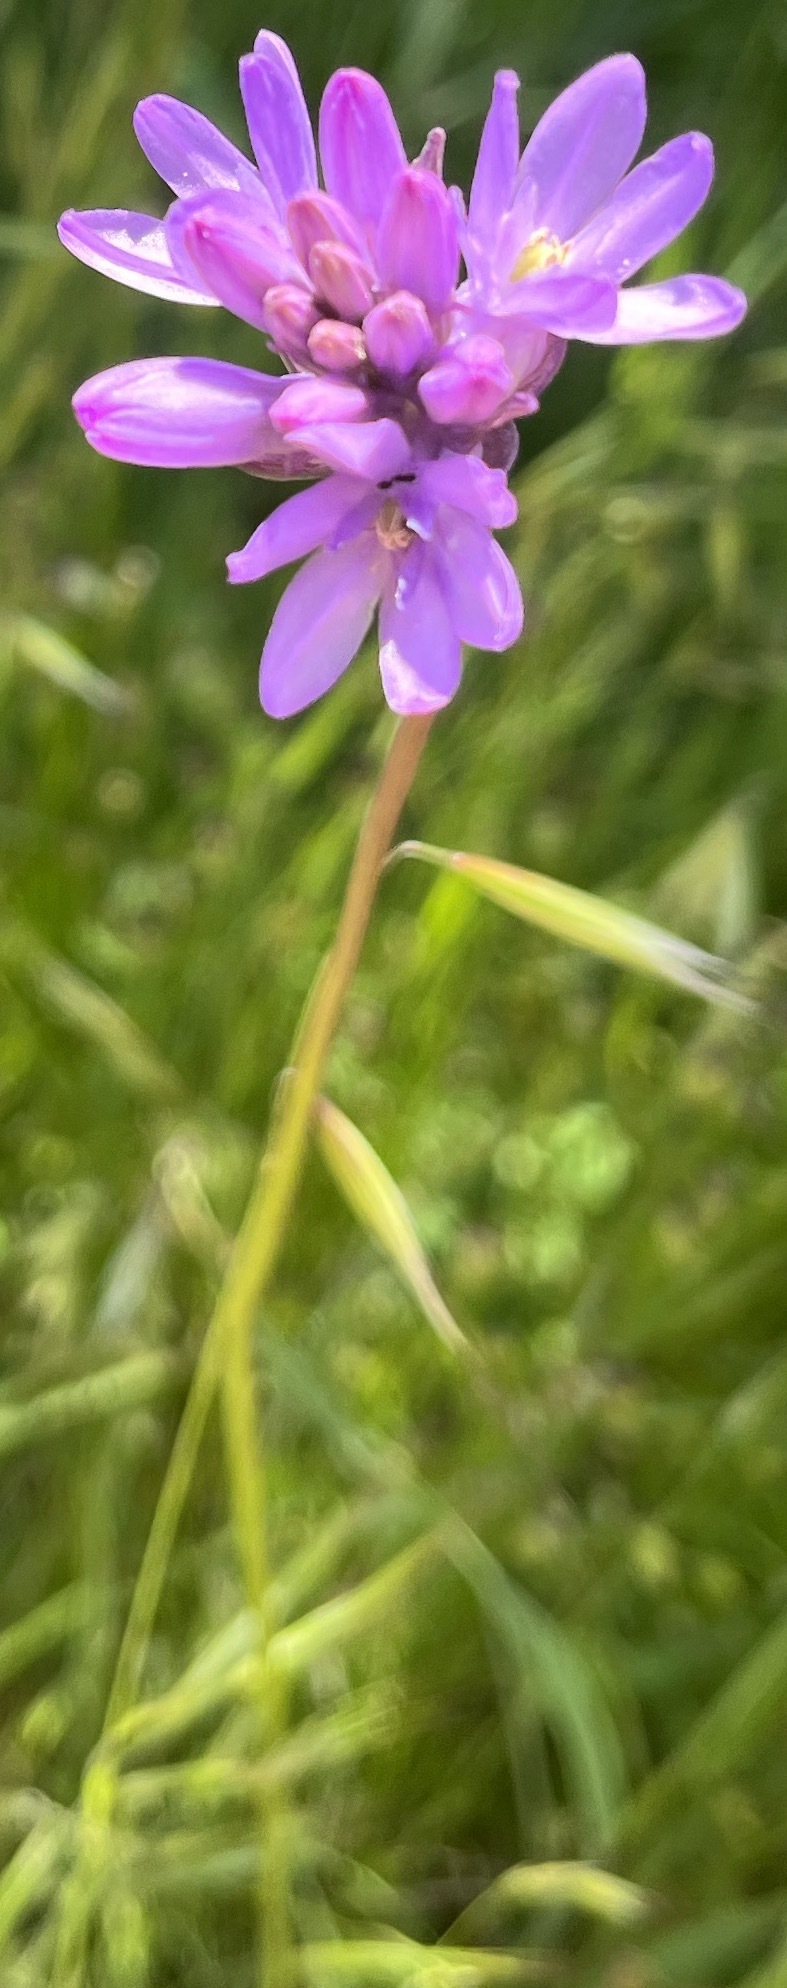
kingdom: Plantae
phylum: Tracheophyta
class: Liliopsida
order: Asparagales
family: Asparagaceae
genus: Dichelostemma
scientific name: Dichelostemma congestum
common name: Fork-tooth ookow
